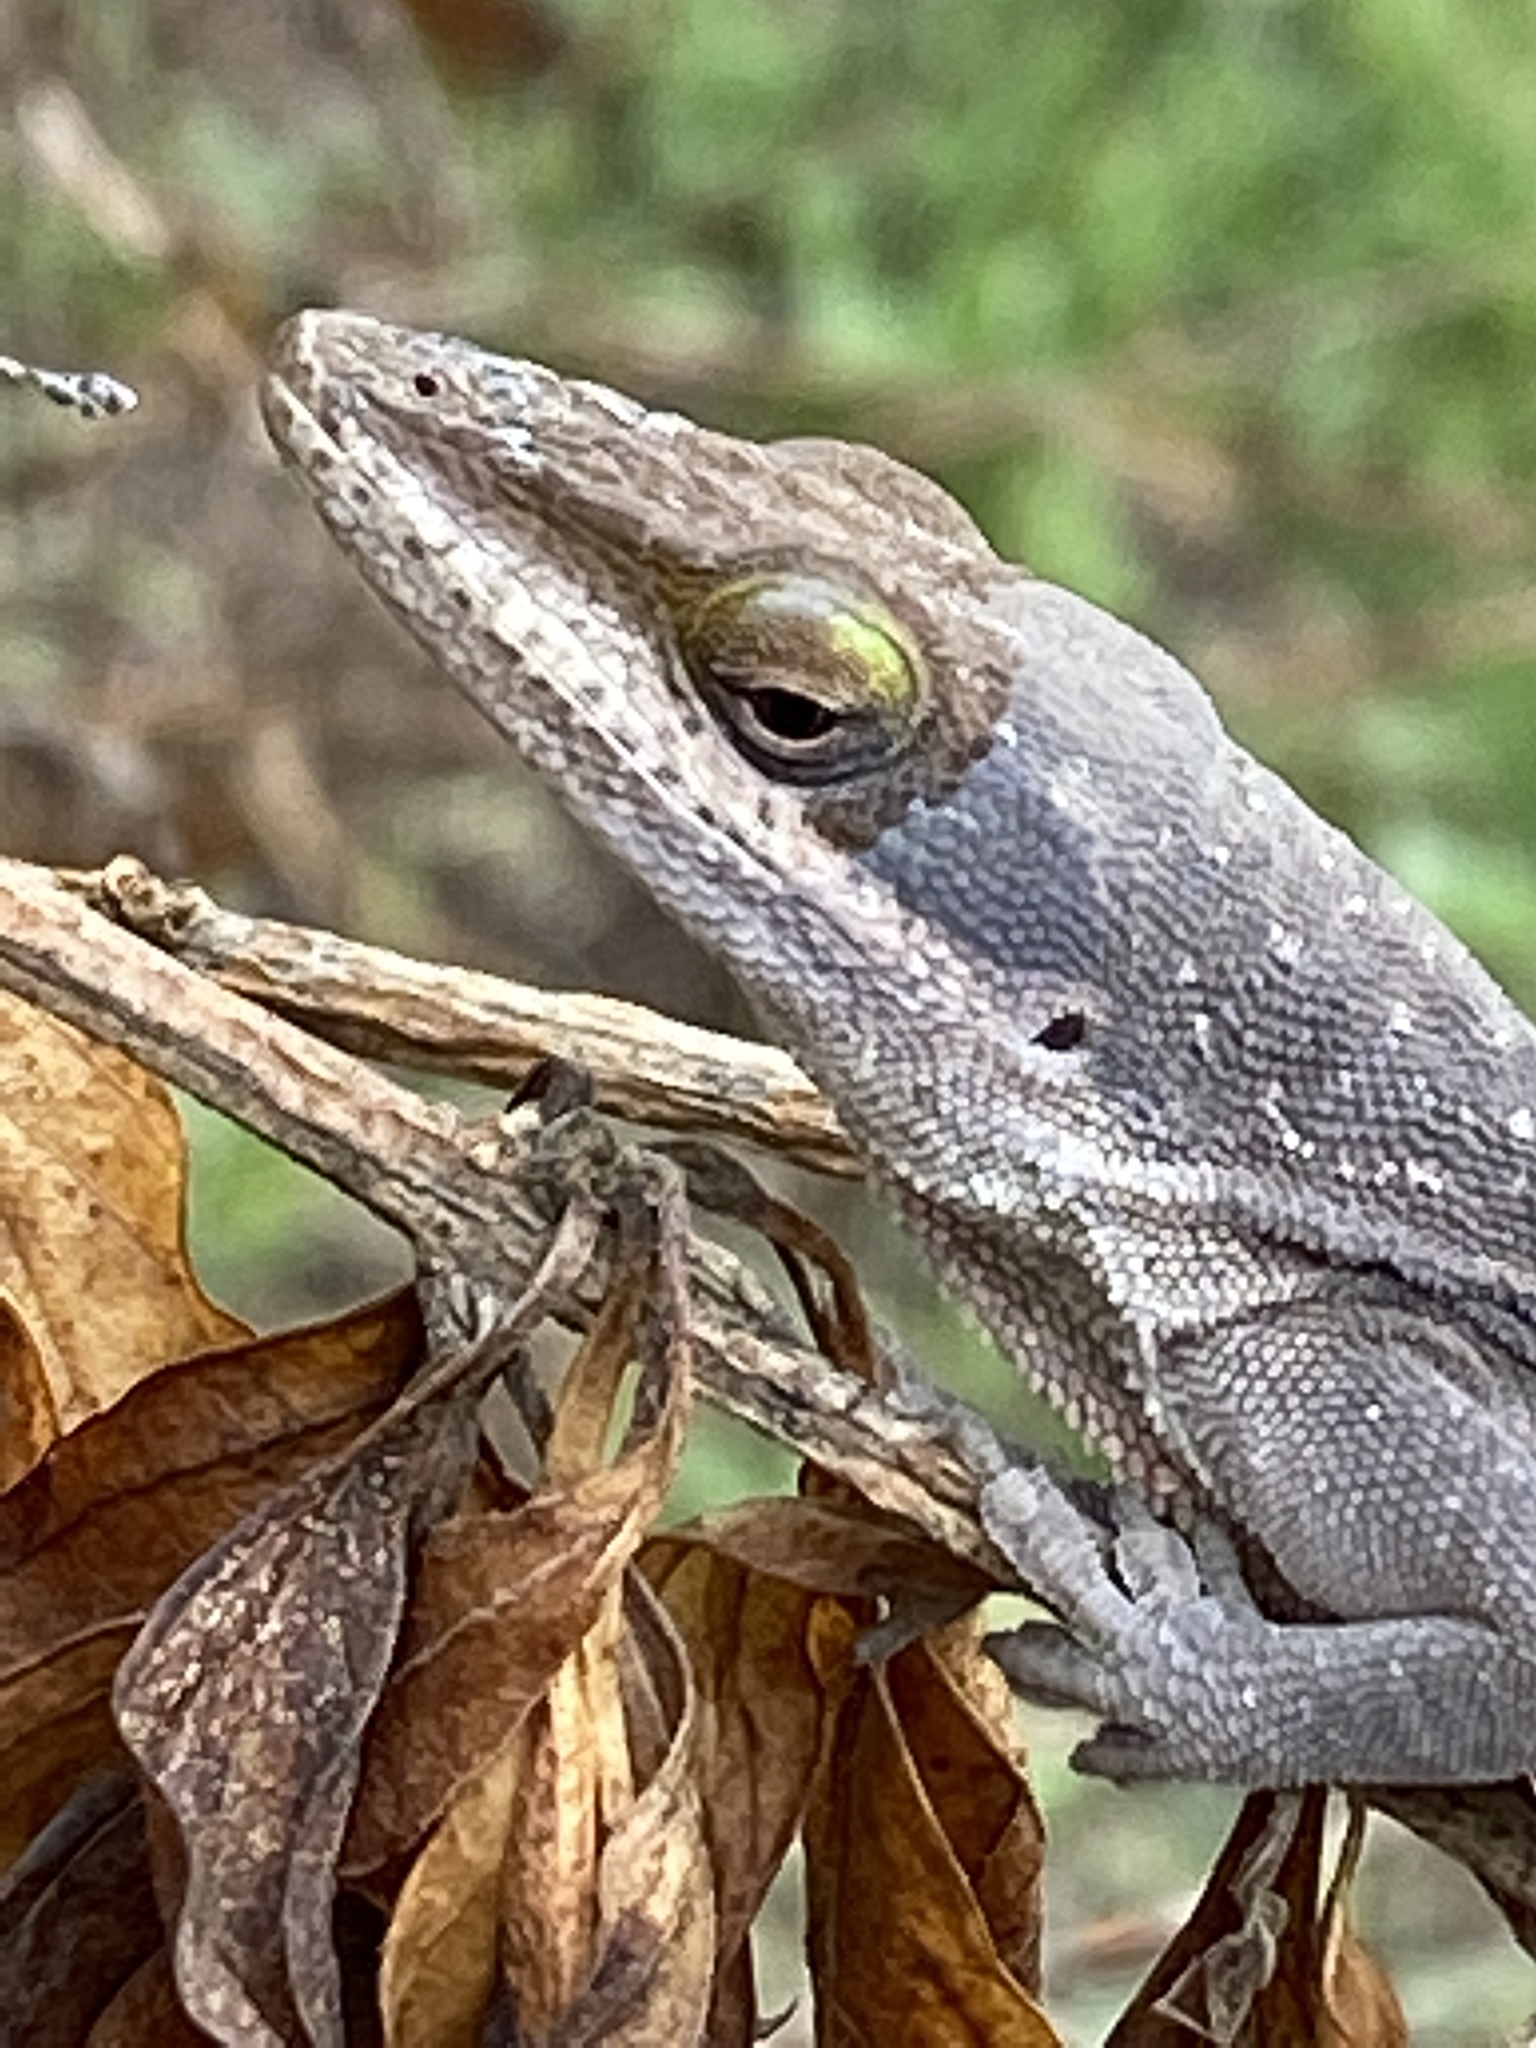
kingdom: Animalia
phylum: Chordata
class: Squamata
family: Dactyloidae
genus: Anolis
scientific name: Anolis carolinensis
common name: Green anole
